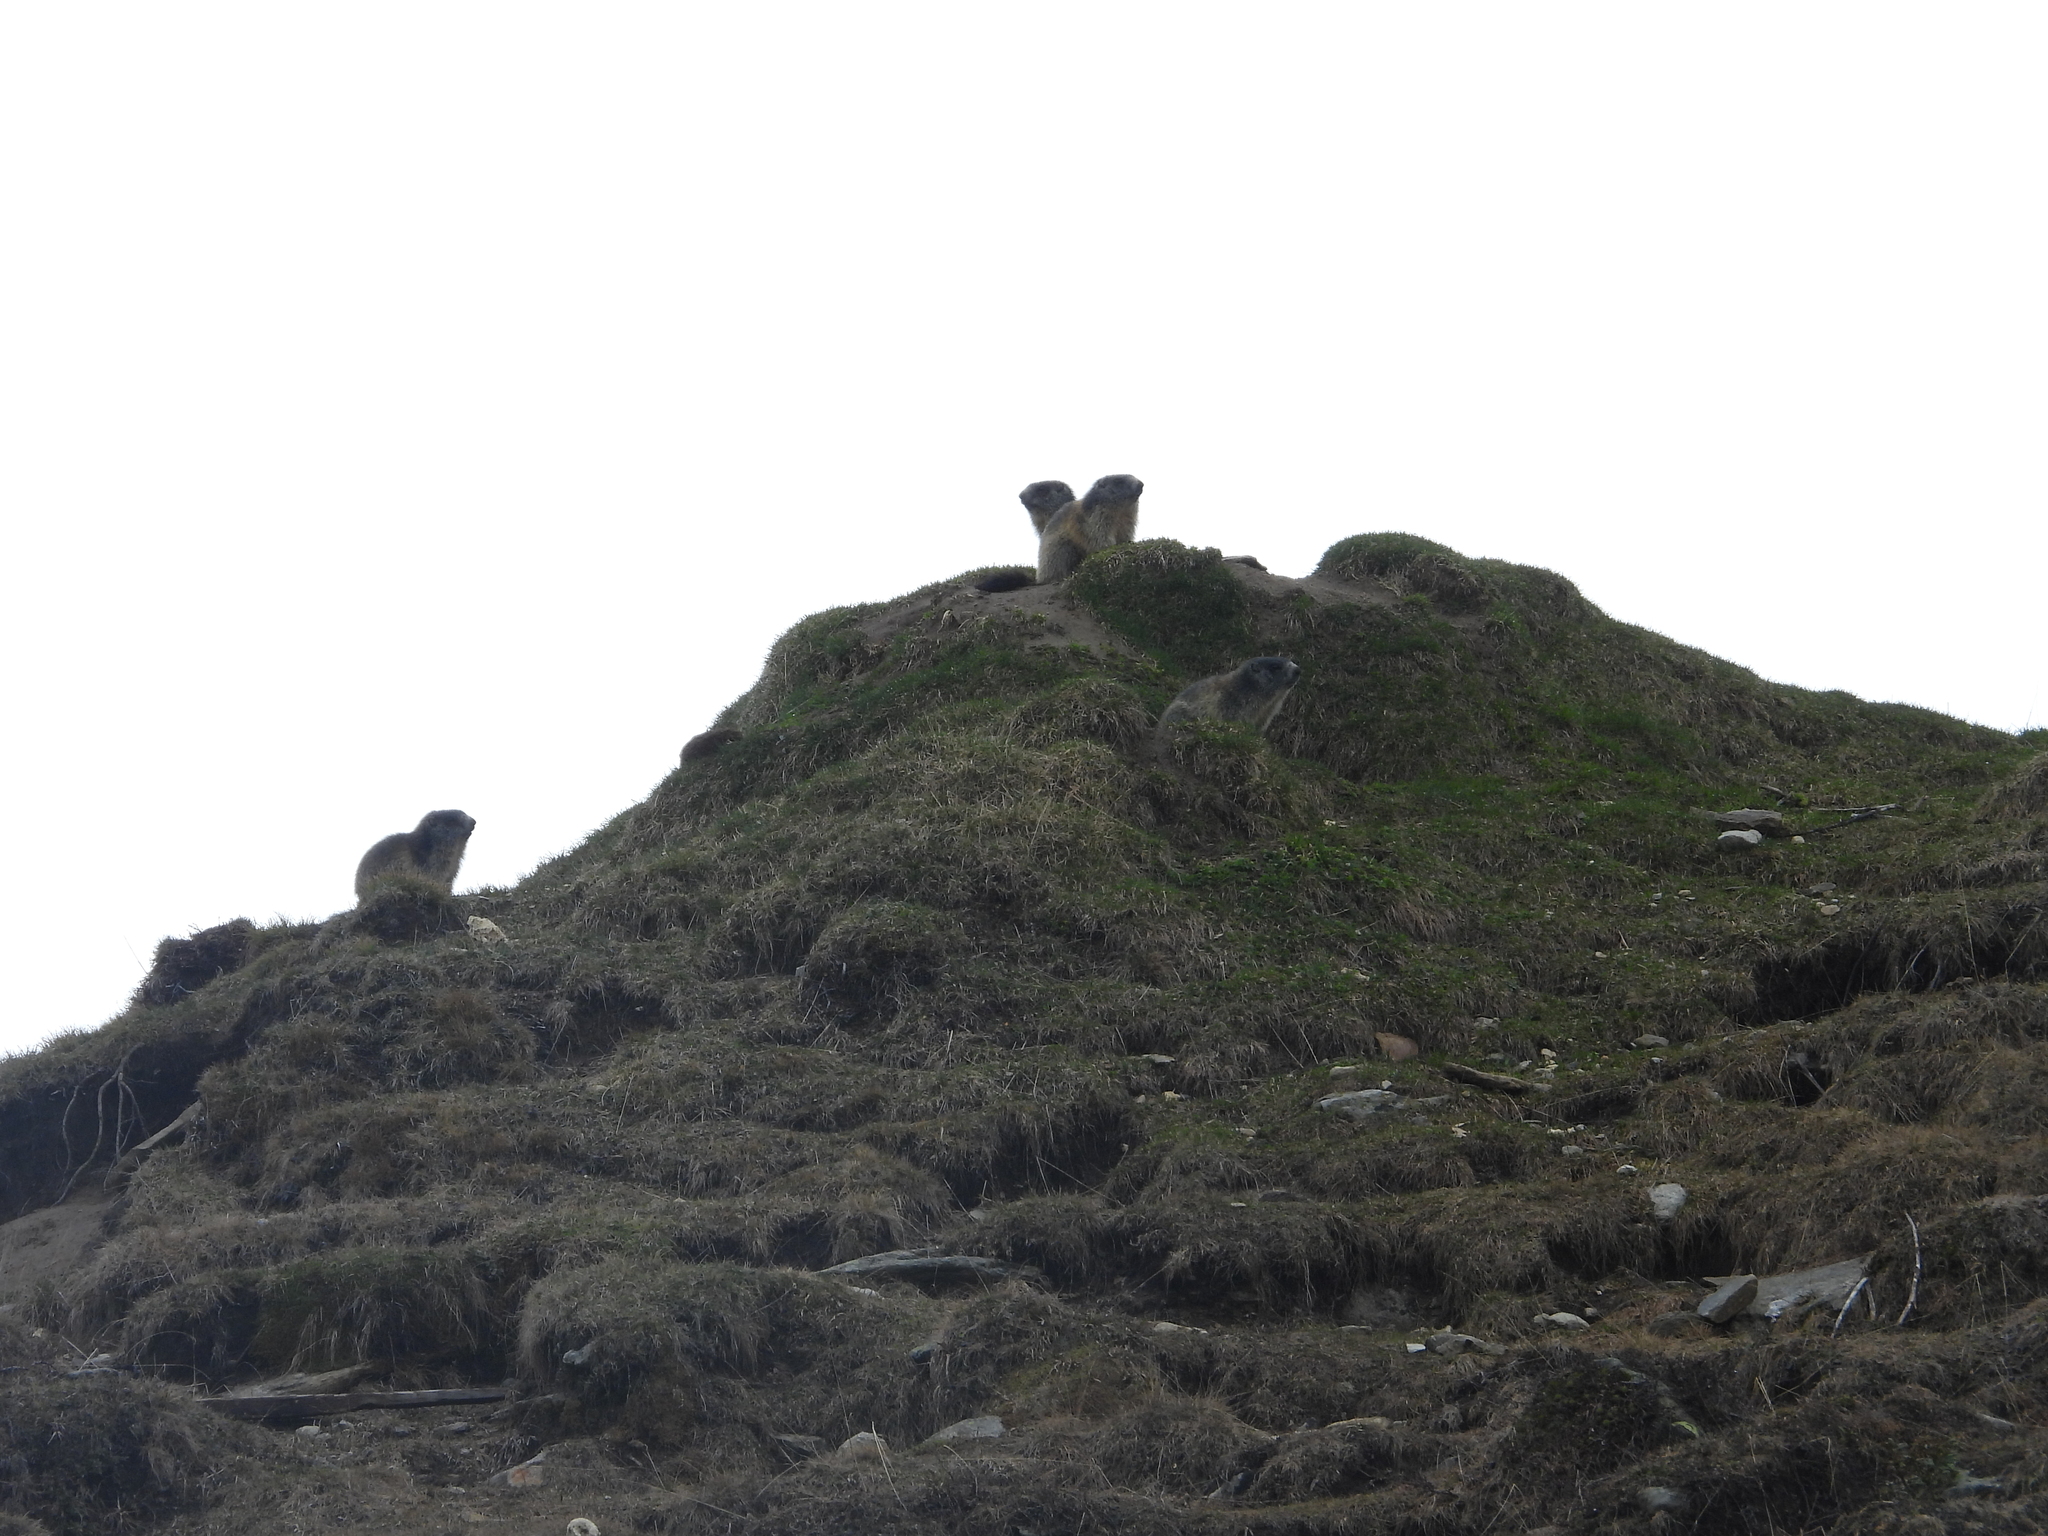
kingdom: Animalia
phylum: Chordata
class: Mammalia
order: Rodentia
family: Sciuridae
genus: Marmota
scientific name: Marmota marmota
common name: Alpine marmot
